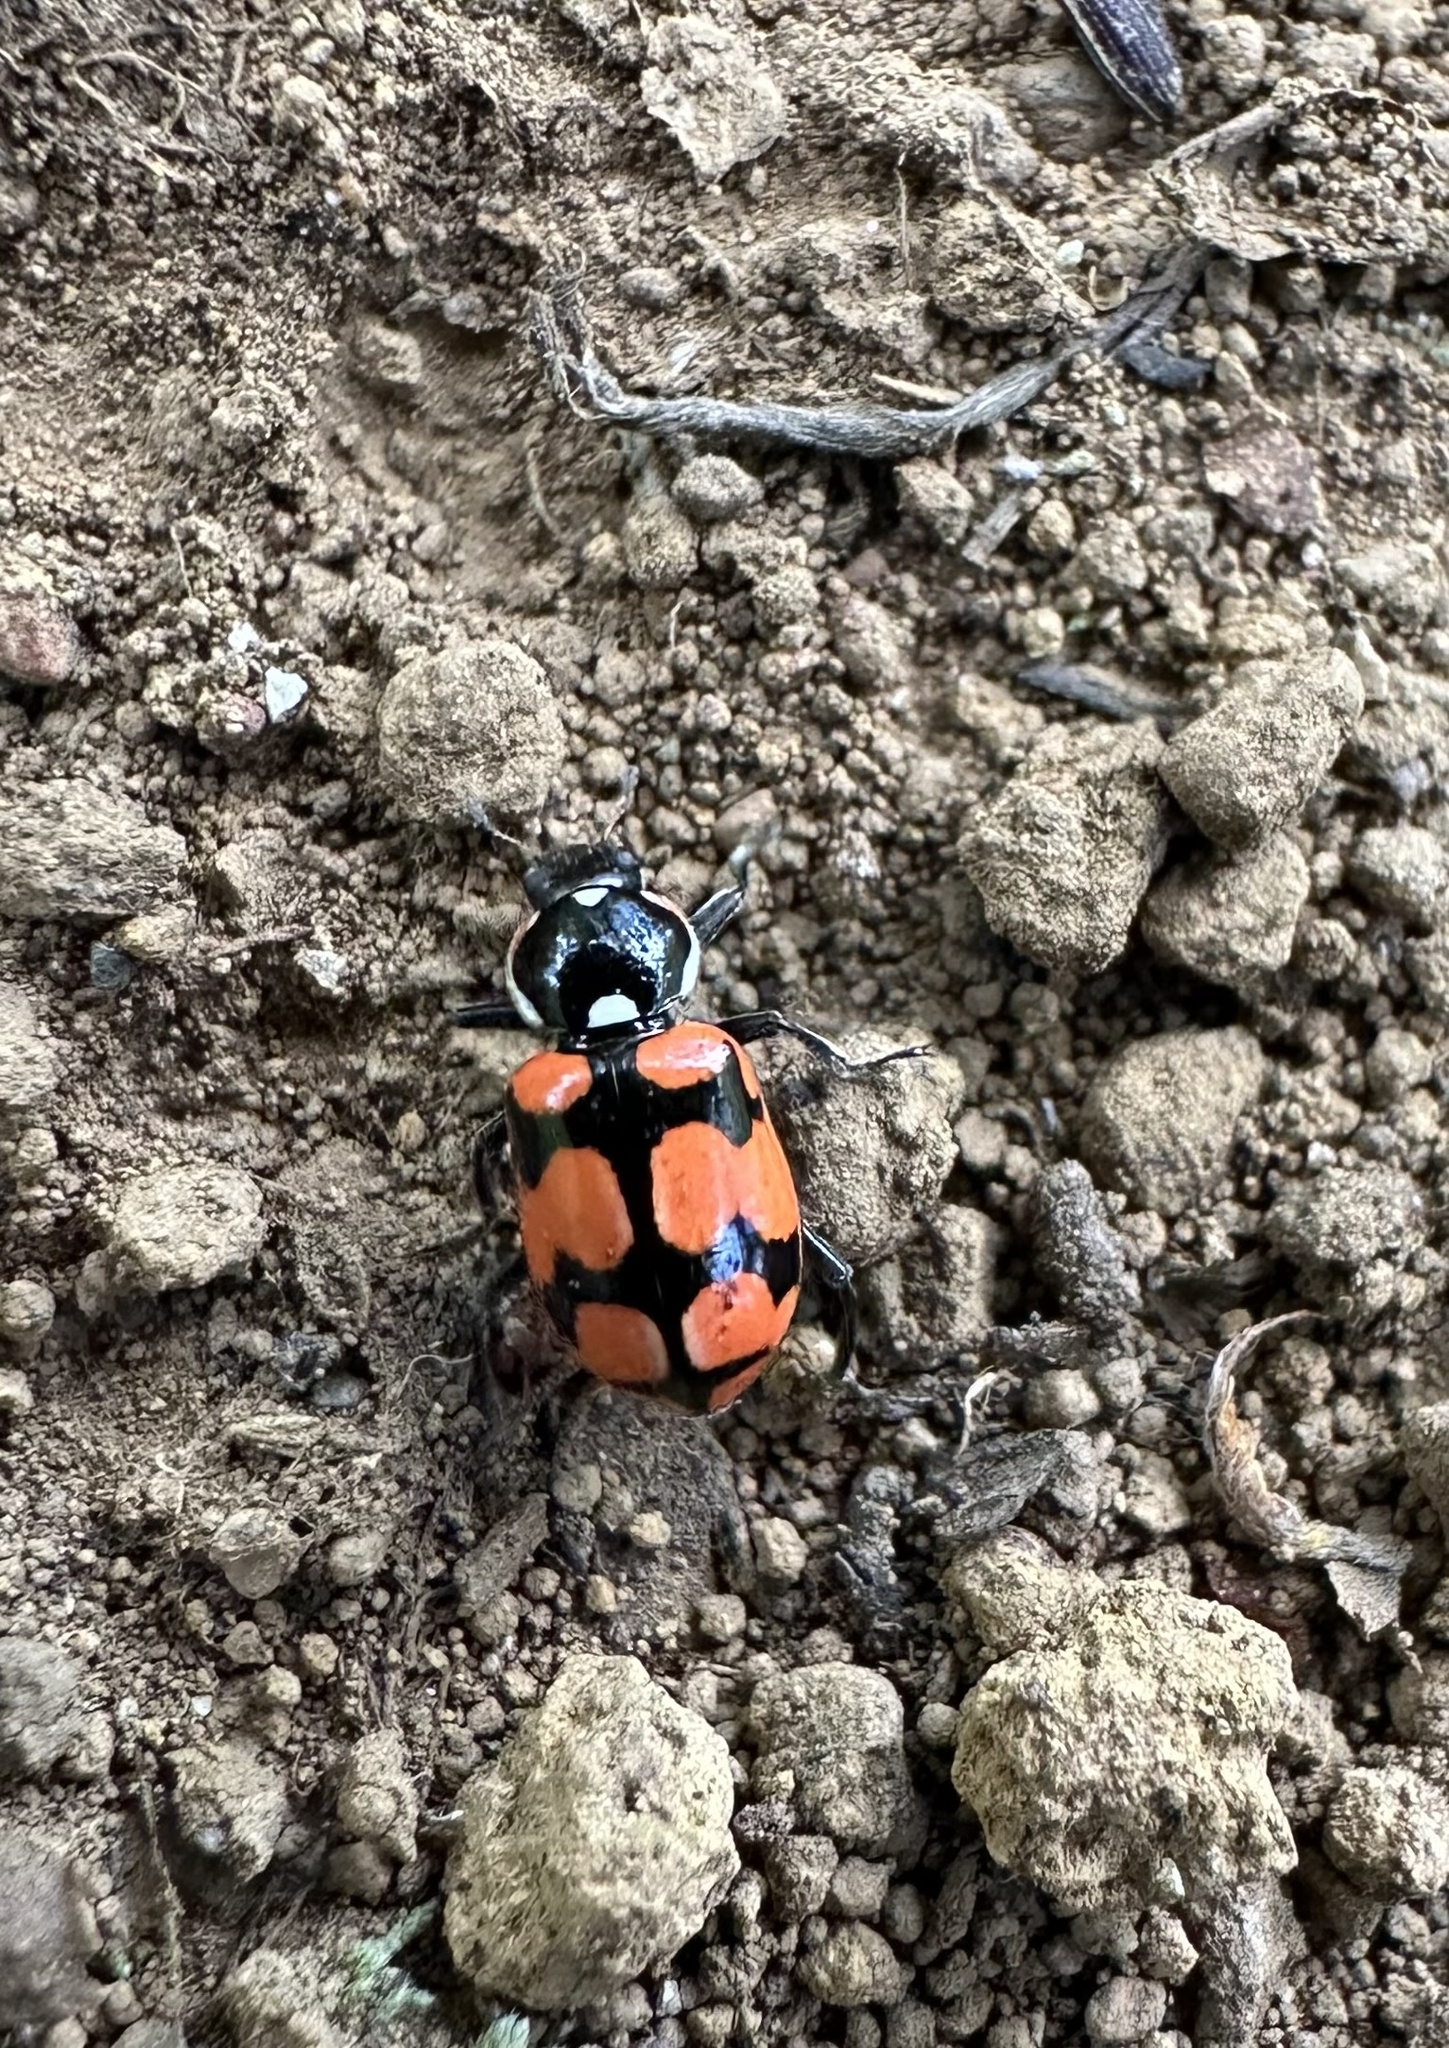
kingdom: Animalia
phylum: Arthropoda
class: Insecta
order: Coleoptera
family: Coccinellidae
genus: Eriopis
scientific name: Eriopis chilensis
